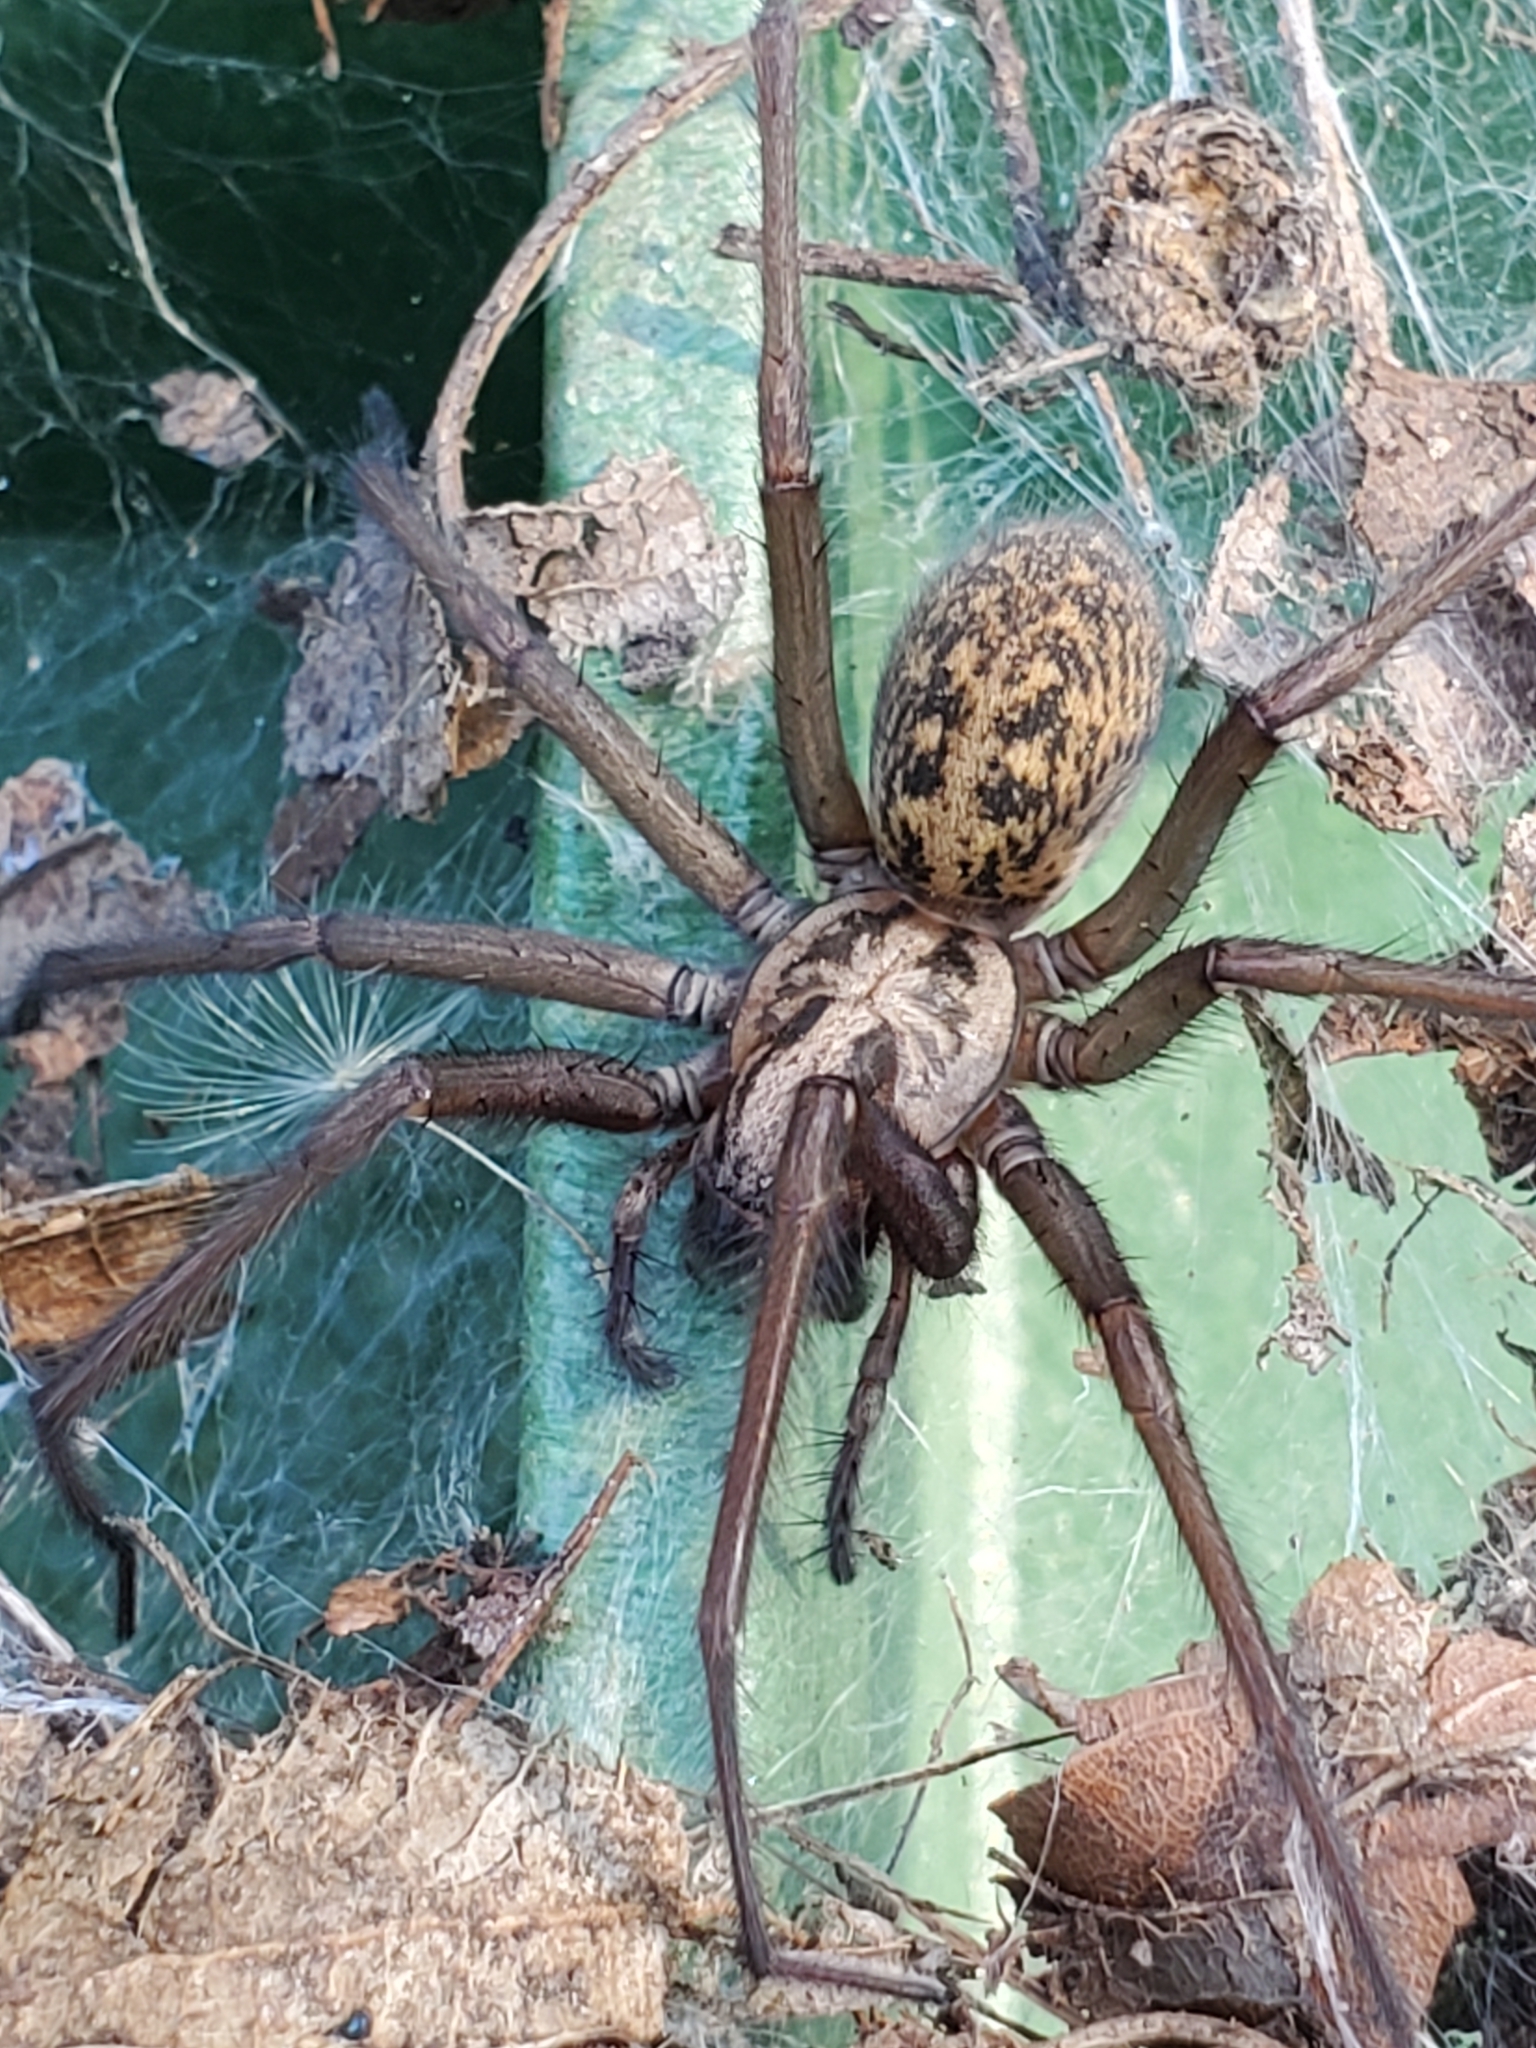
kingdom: Animalia
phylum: Arthropoda
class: Arachnida
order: Araneae
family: Agelenidae
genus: Eratigena
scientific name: Eratigena duellica
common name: Giant house spider
